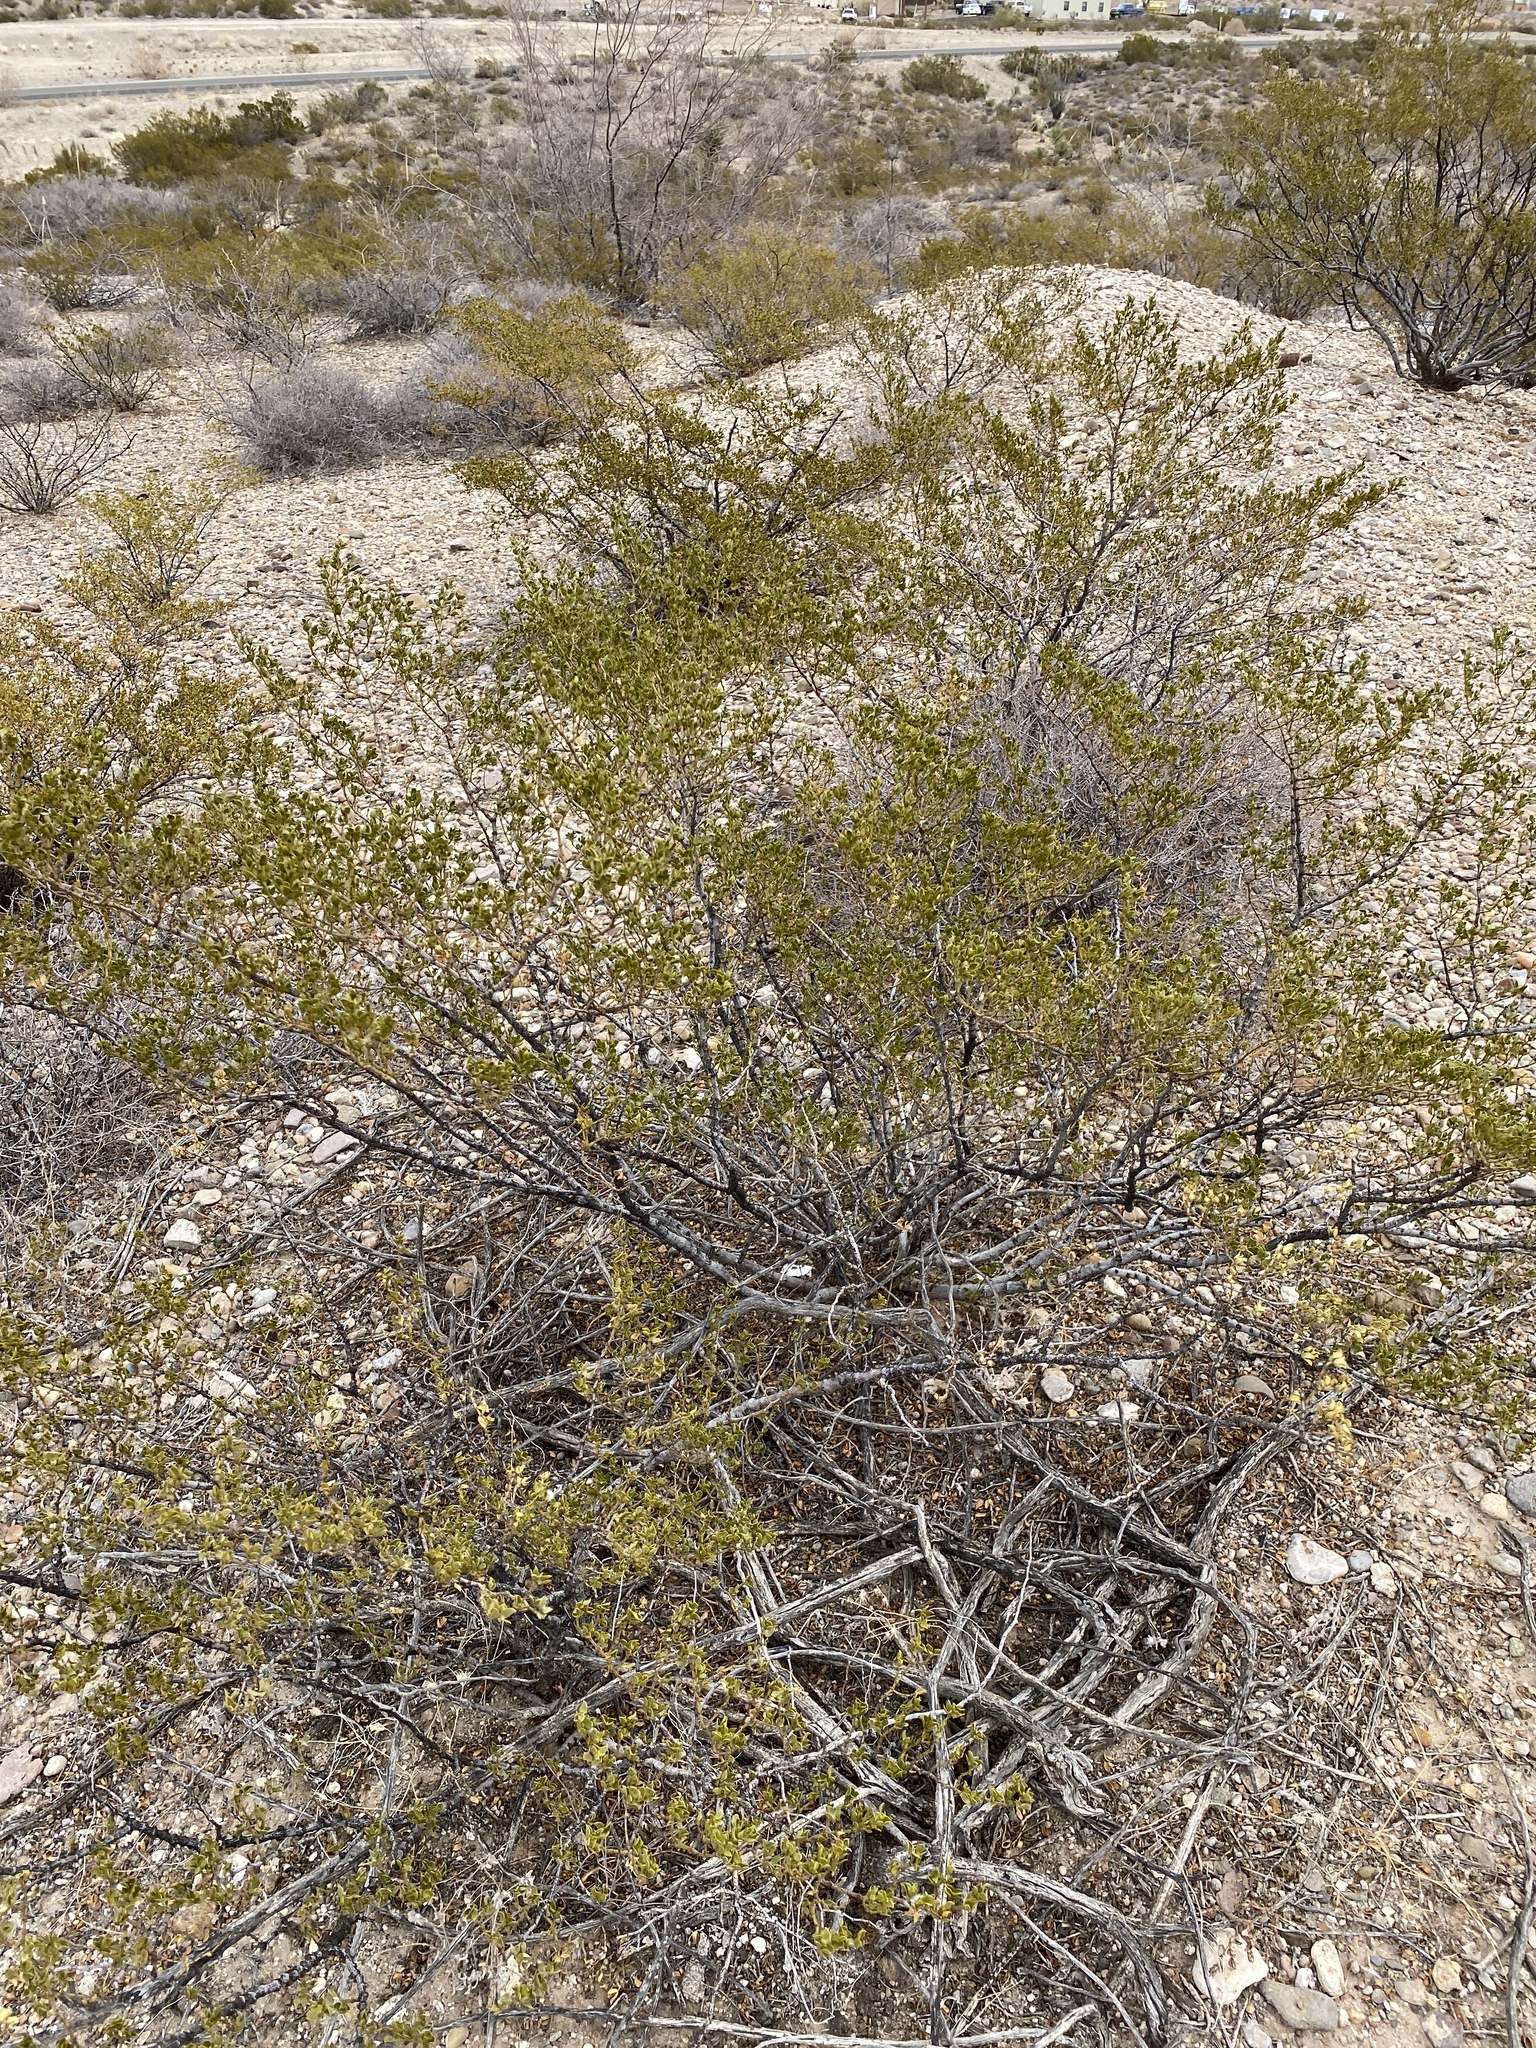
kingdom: Plantae
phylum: Tracheophyta
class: Magnoliopsida
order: Zygophyllales
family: Zygophyllaceae
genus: Larrea
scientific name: Larrea tridentata
